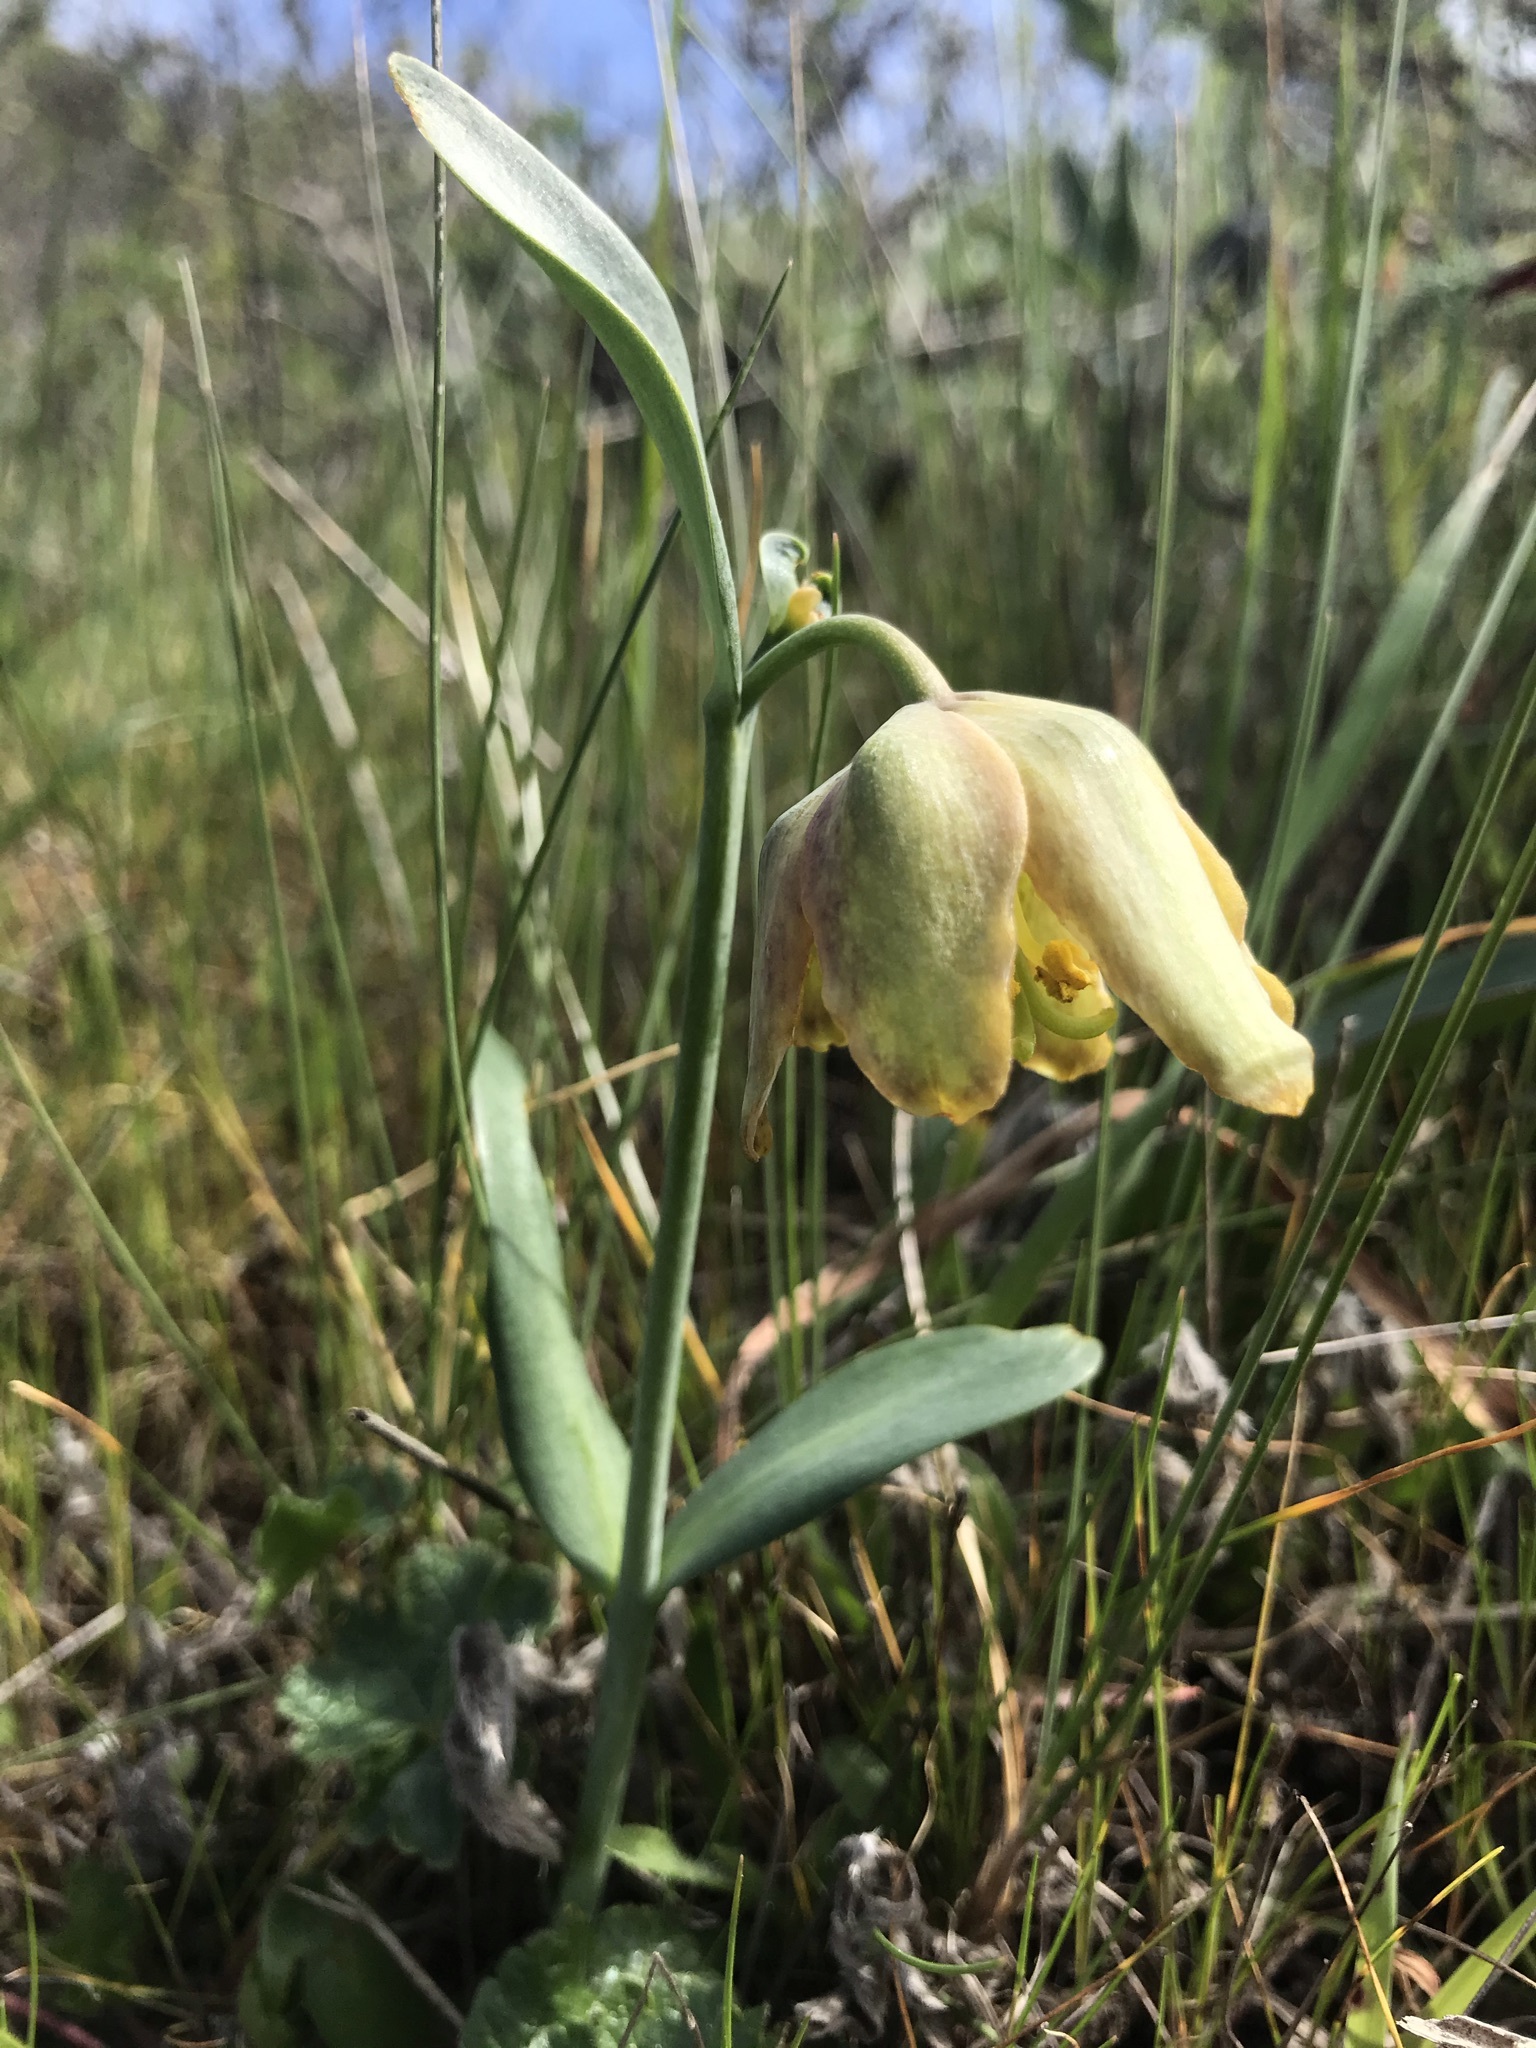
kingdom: Plantae
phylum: Tracheophyta
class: Liliopsida
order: Liliales
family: Liliaceae
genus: Fritillaria
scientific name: Fritillaria affinis
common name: Ojai fritillary
